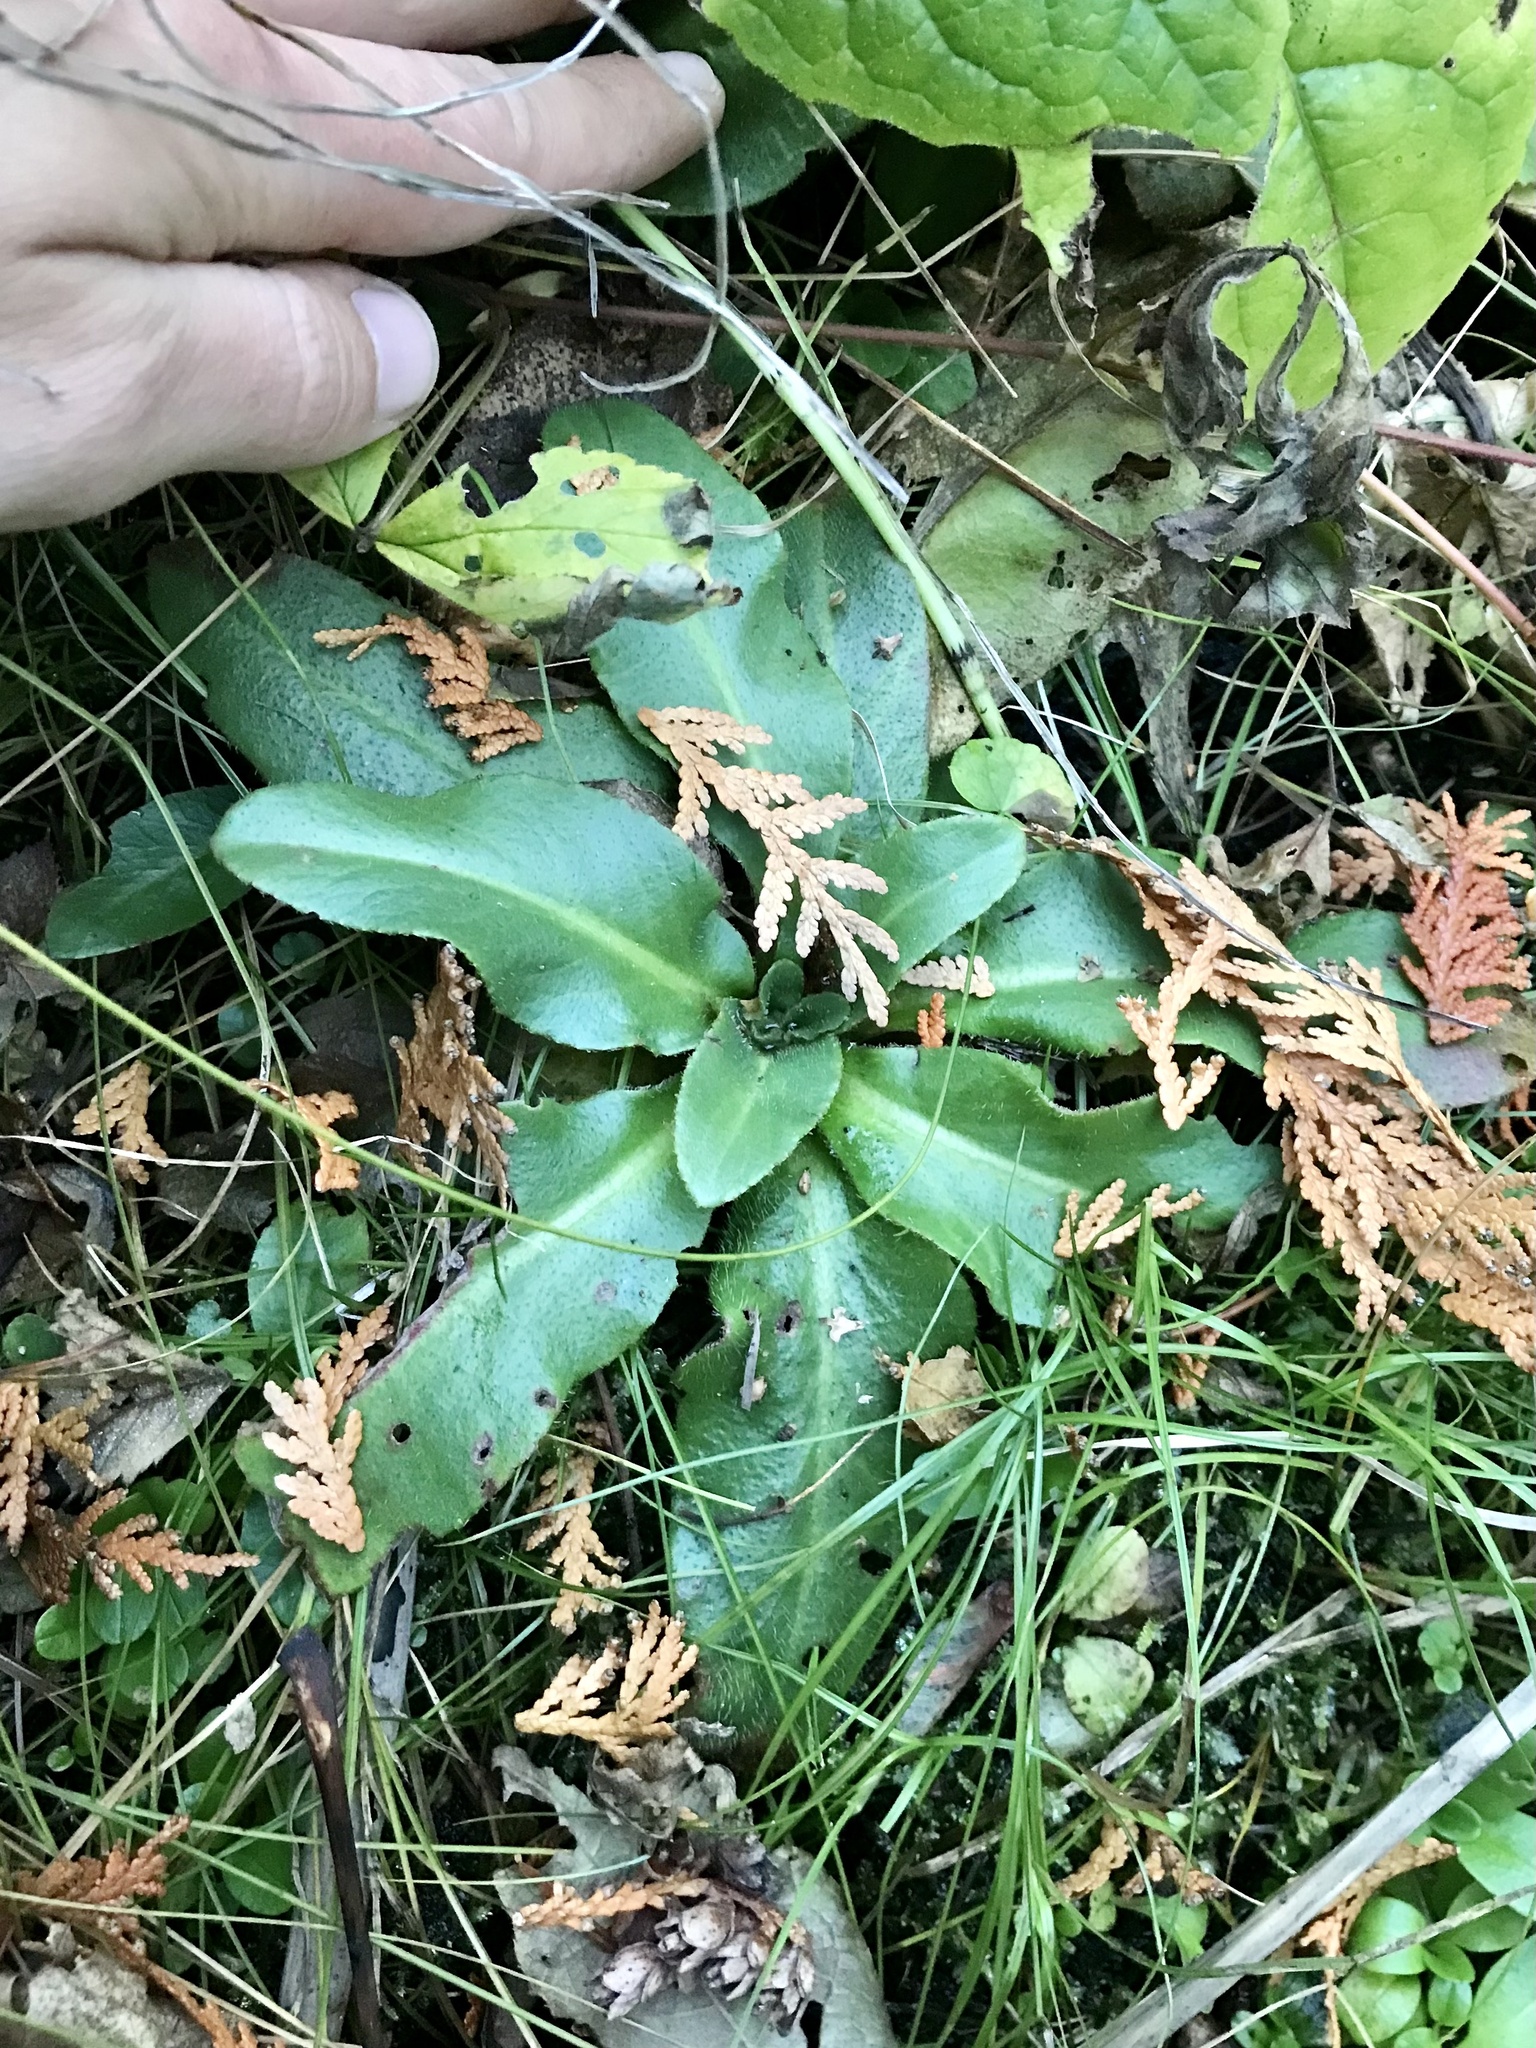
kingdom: Plantae
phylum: Tracheophyta
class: Magnoliopsida
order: Saxifragales
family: Saxifragaceae
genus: Micranthes
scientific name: Micranthes pensylvanica
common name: Marsh saxifrage
